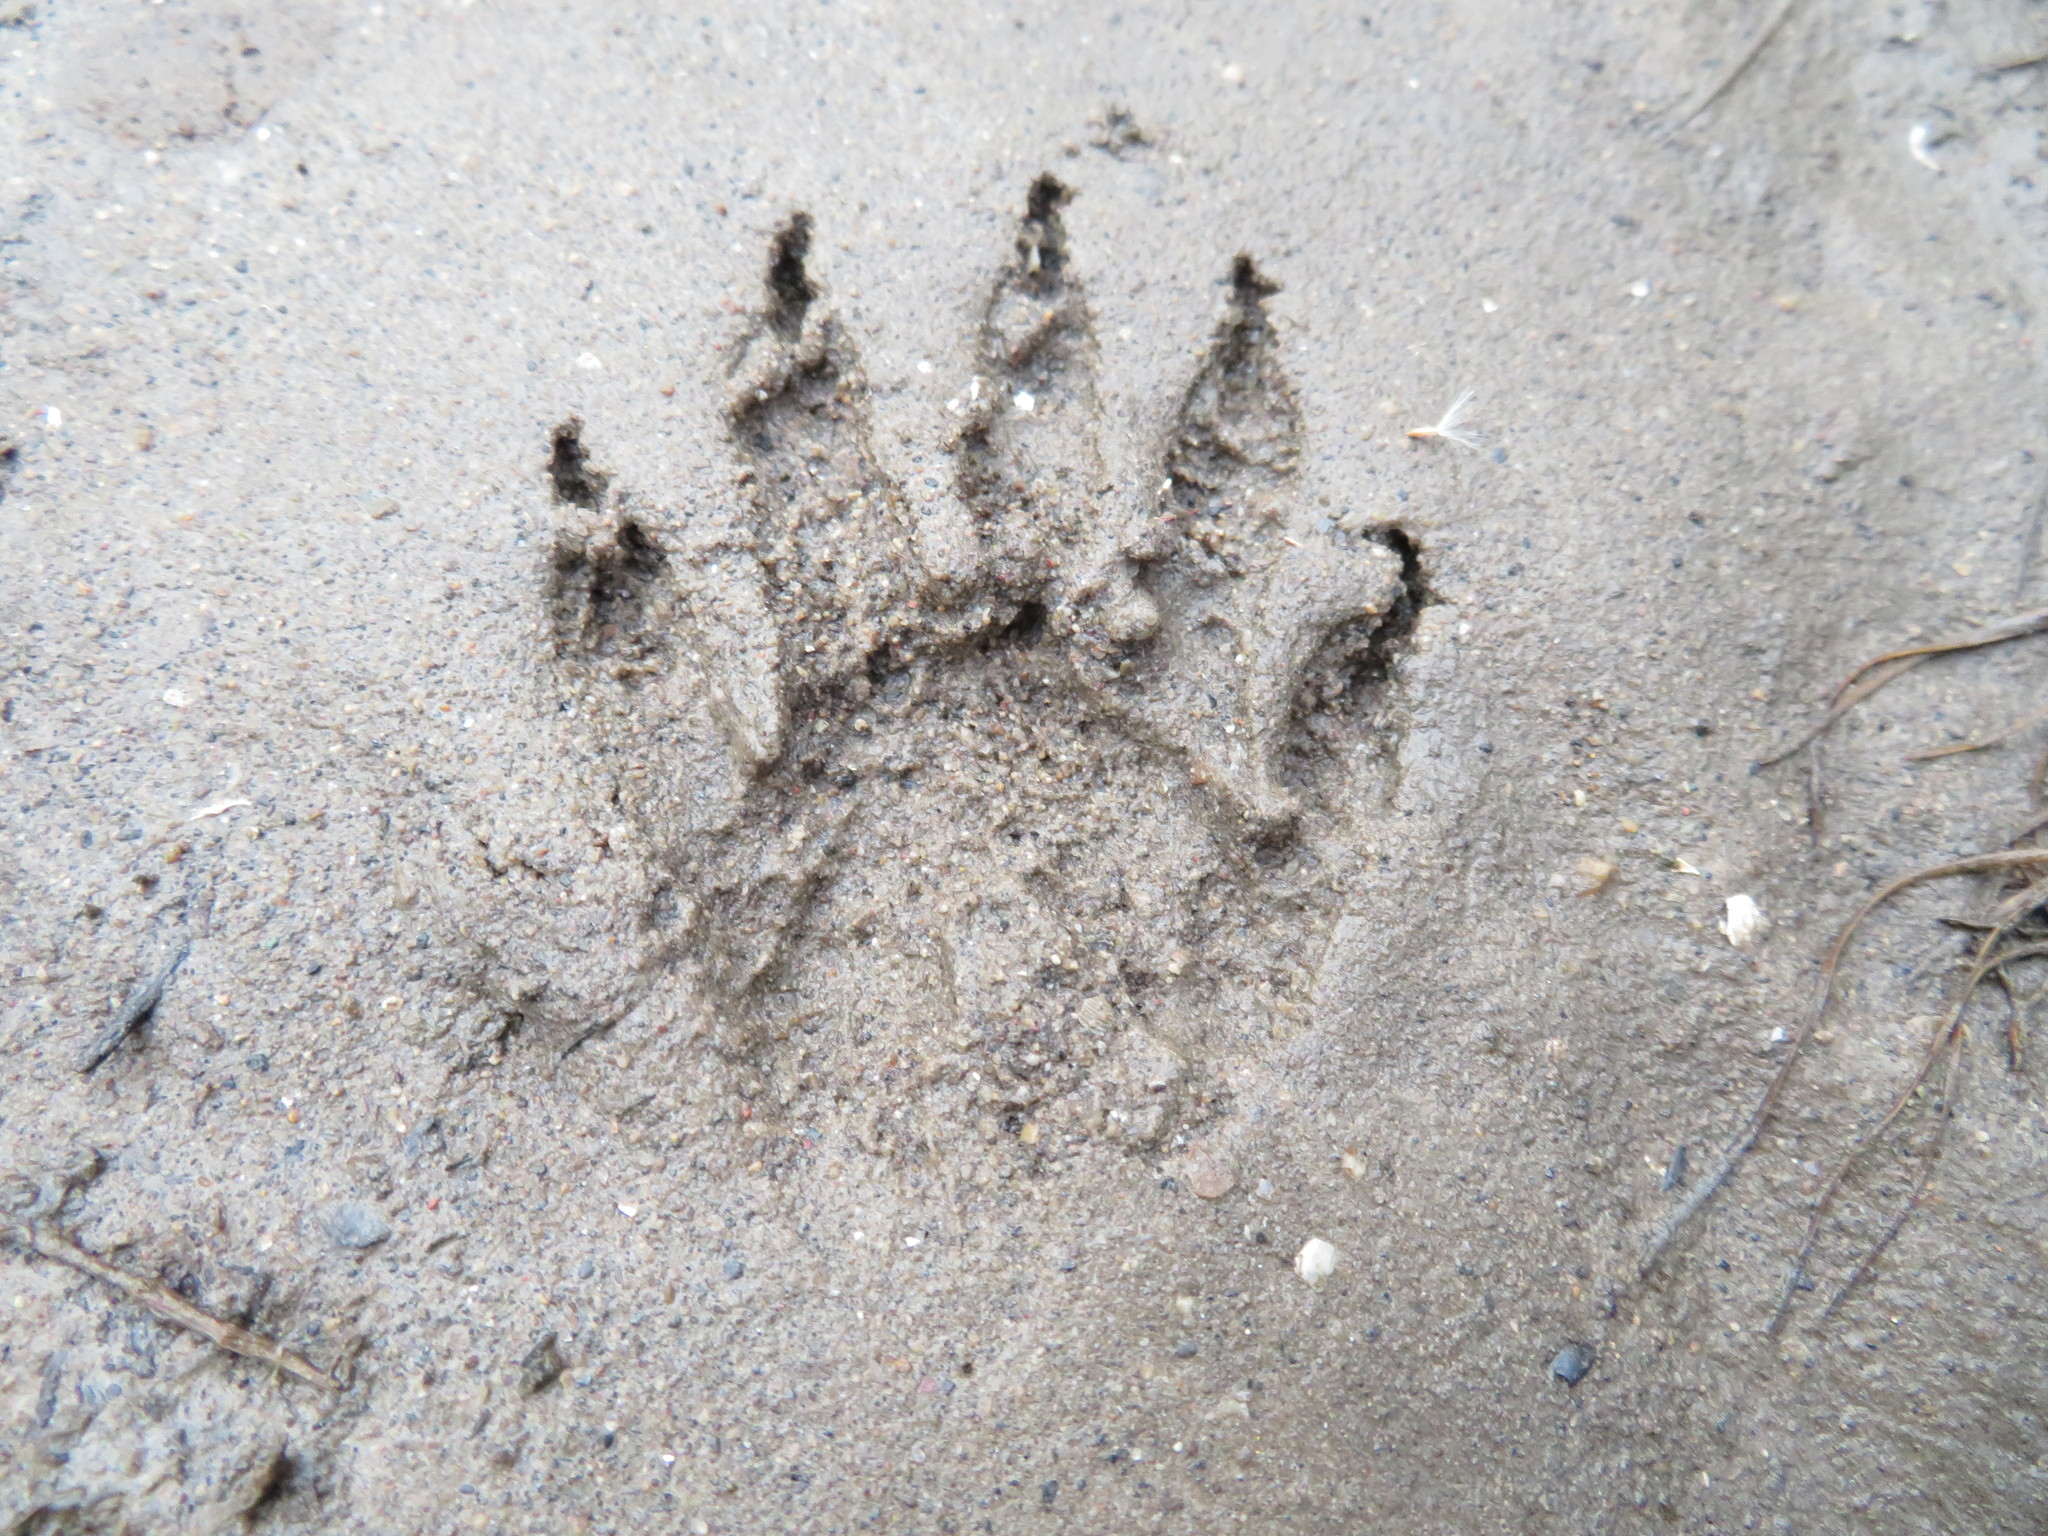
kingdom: Animalia
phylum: Chordata
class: Mammalia
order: Carnivora
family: Procyonidae
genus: Procyon
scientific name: Procyon lotor
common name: Raccoon
